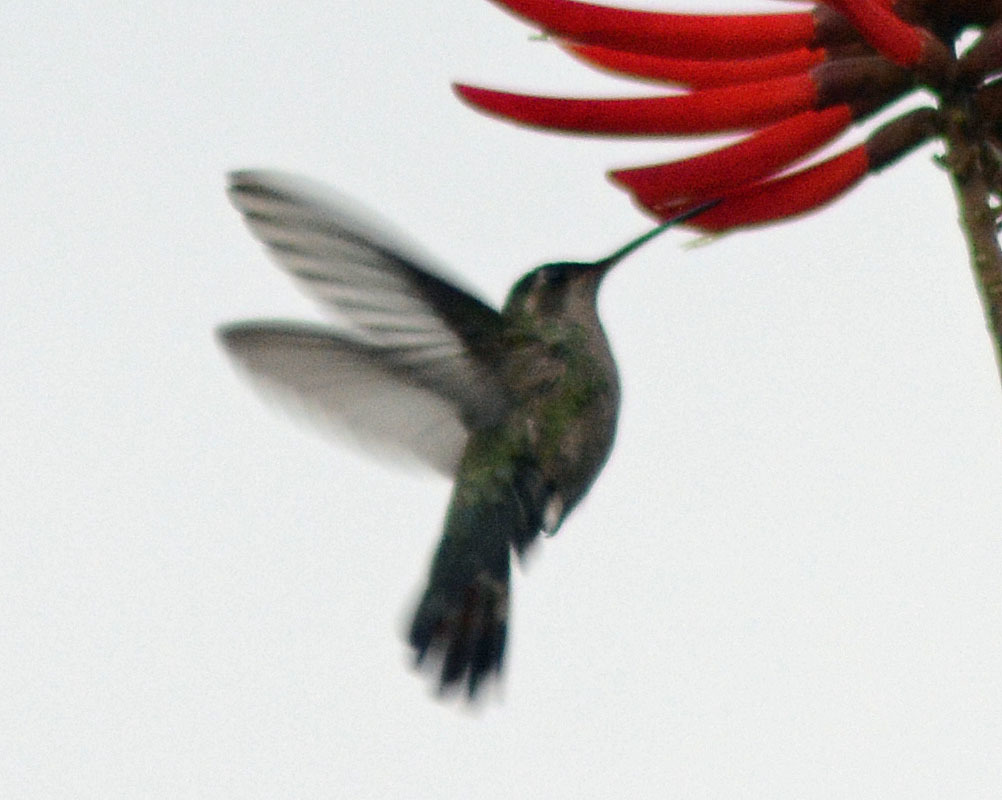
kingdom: Animalia
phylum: Chordata
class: Aves
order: Apodiformes
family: Trochilidae
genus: Cynanthus
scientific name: Cynanthus latirostris
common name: Broad-billed hummingbird
